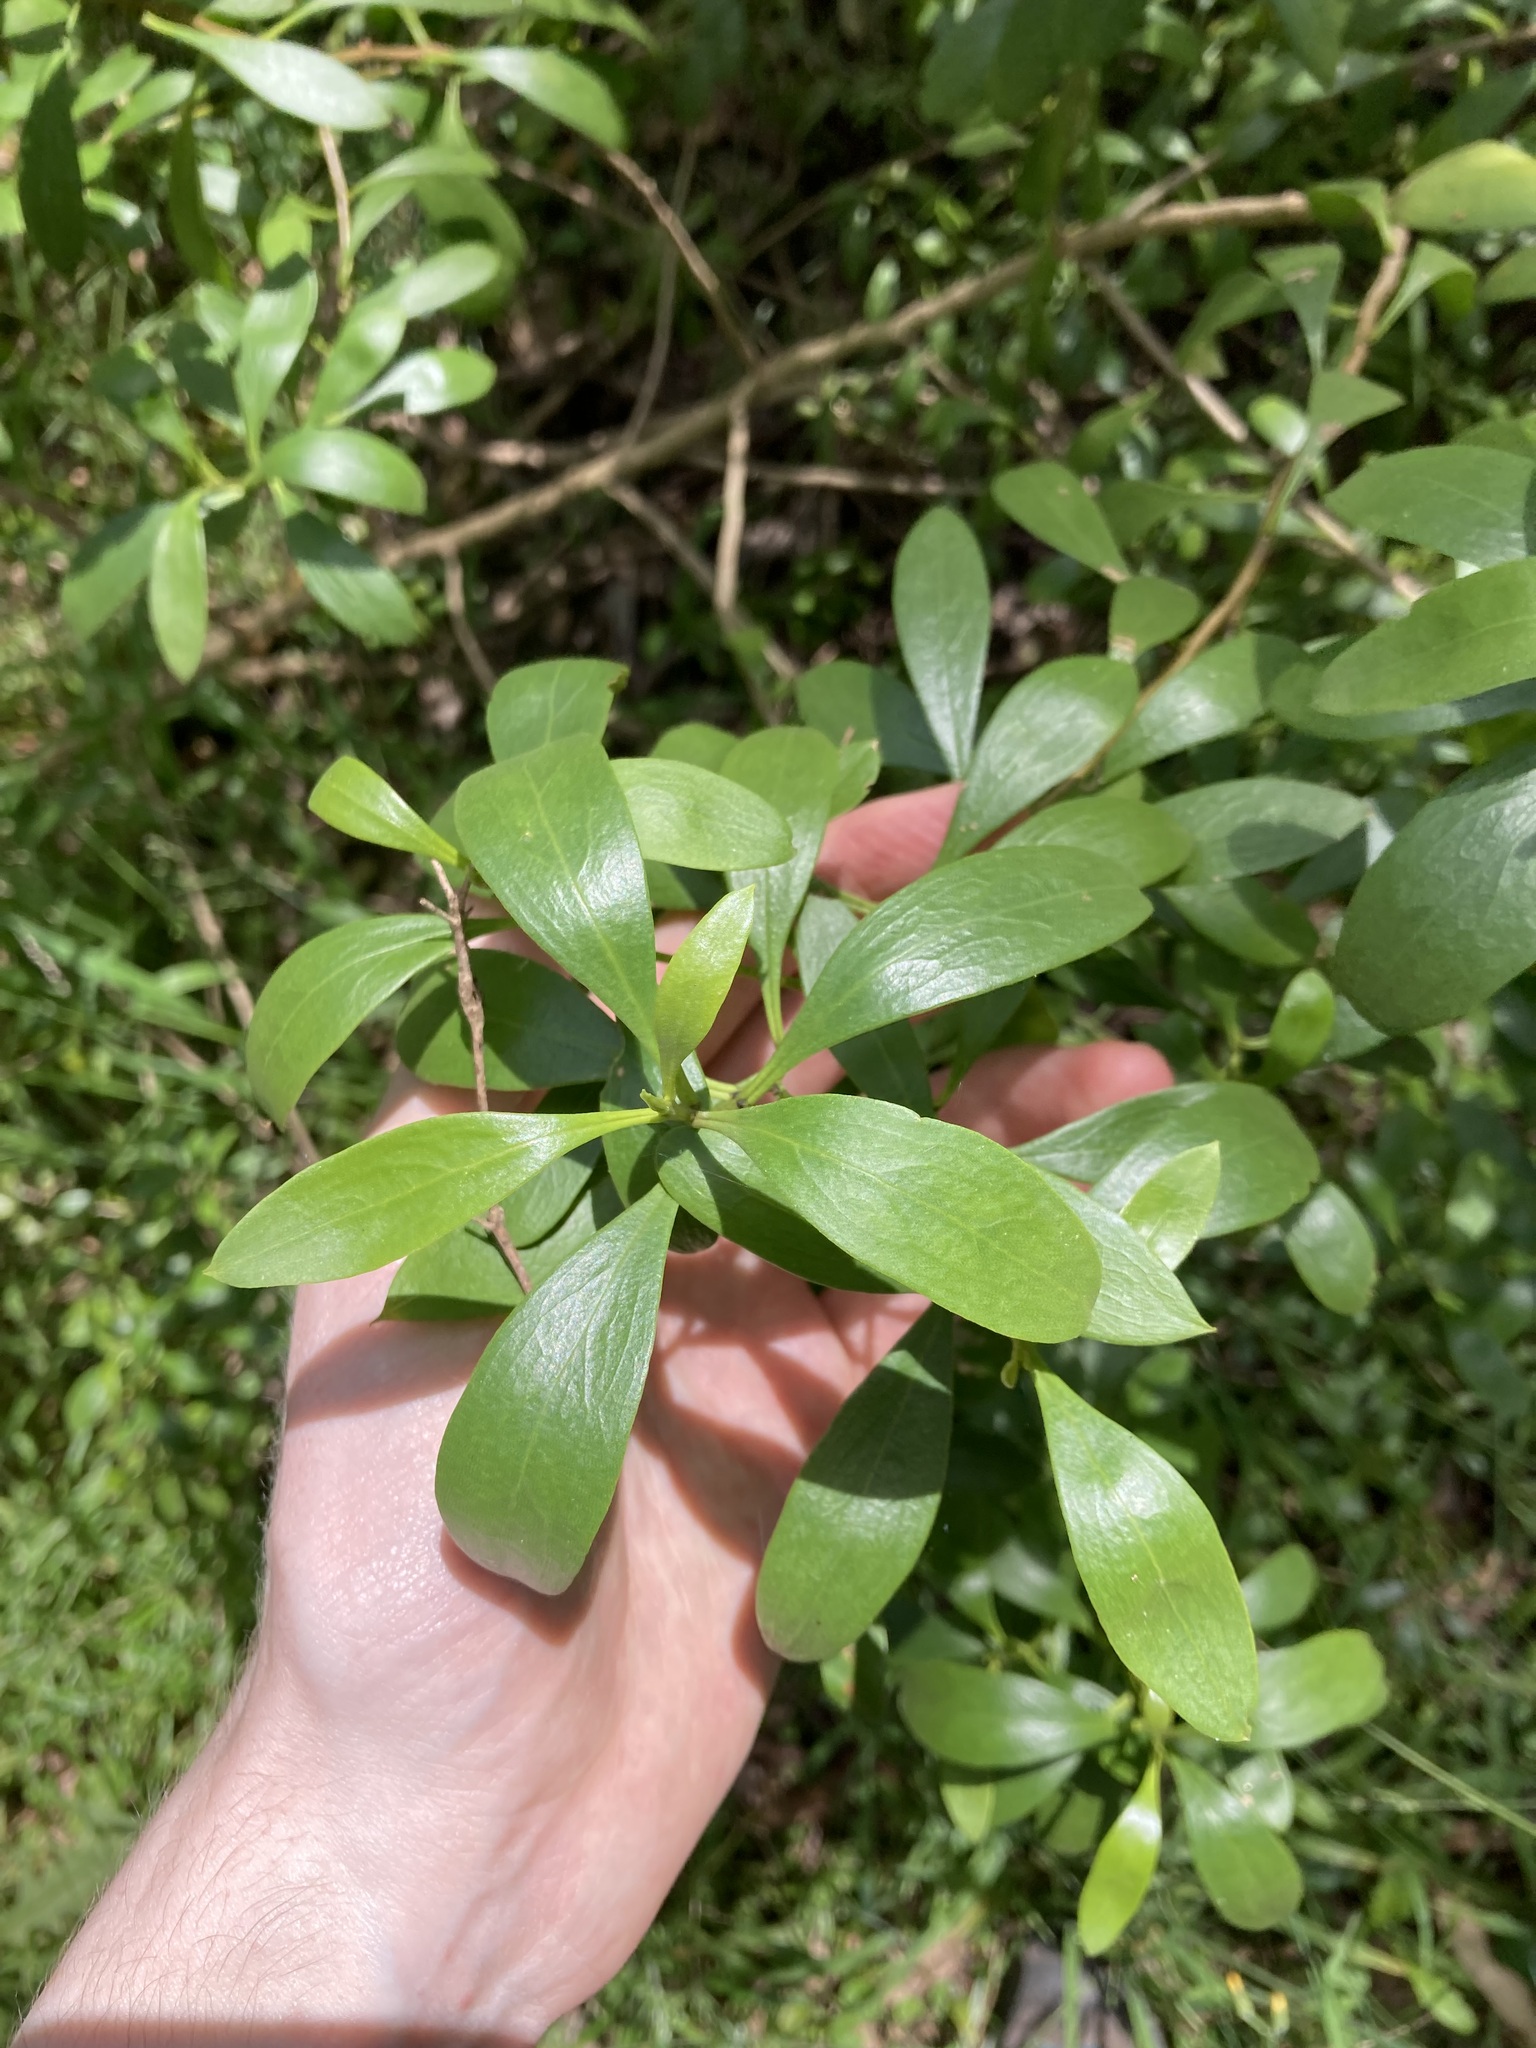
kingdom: Plantae
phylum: Tracheophyta
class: Magnoliopsida
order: Lamiales
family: Scrophulariaceae
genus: Myoporum
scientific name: Myoporum boninense
